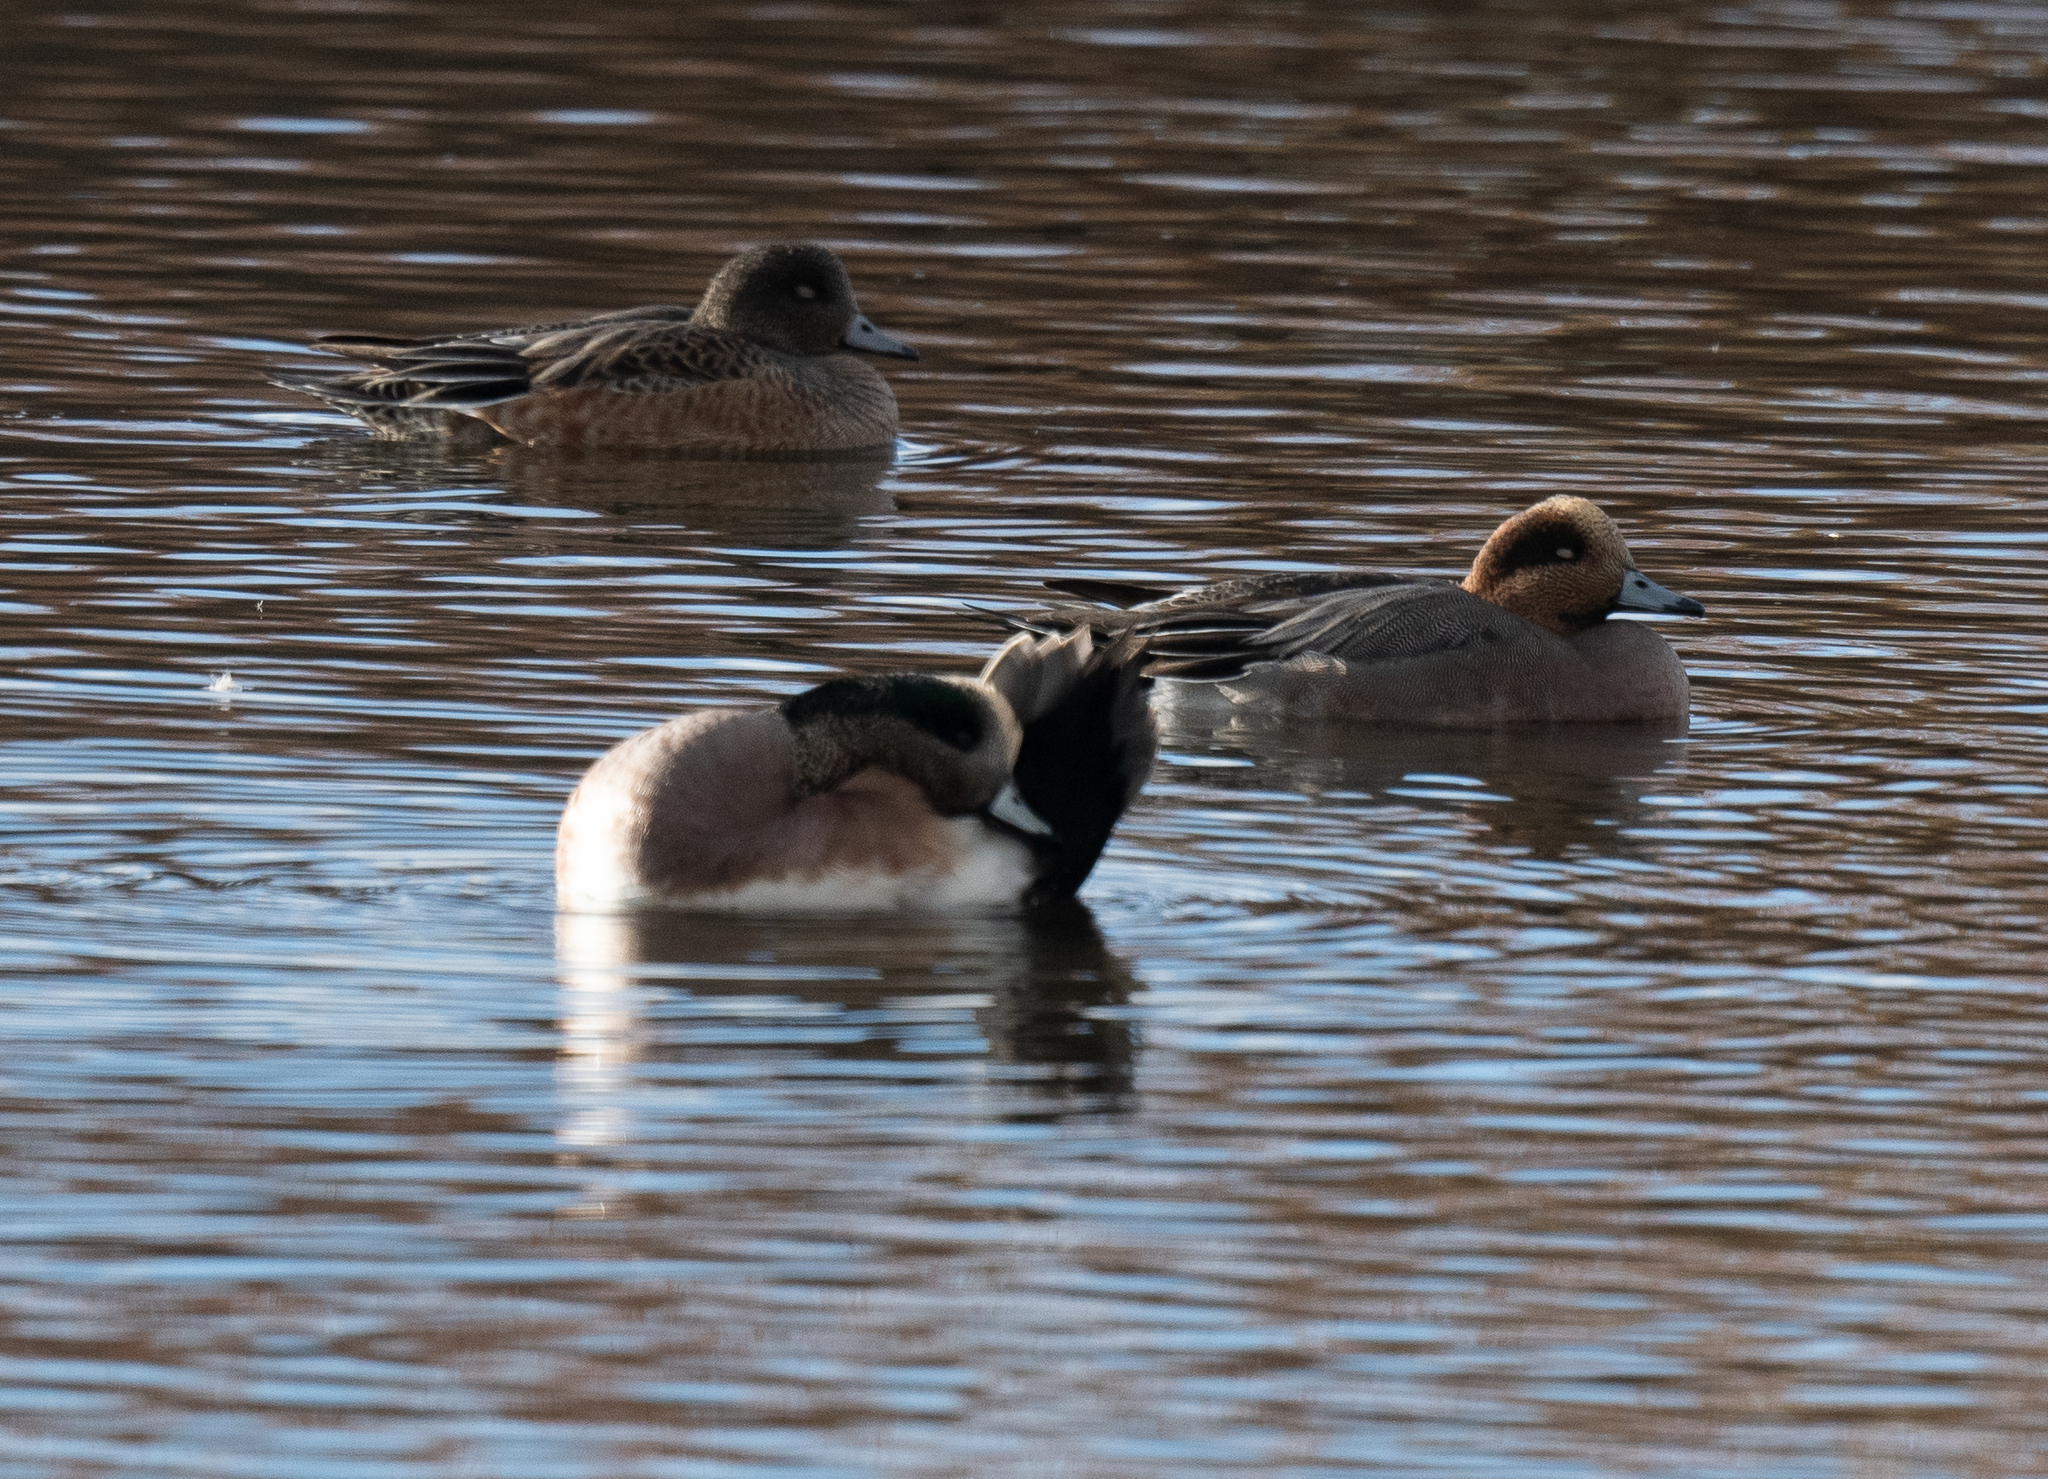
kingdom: Animalia
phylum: Chordata
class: Aves
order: Anseriformes
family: Anatidae
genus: Mareca
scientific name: Mareca penelope
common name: Eurasian wigeon
